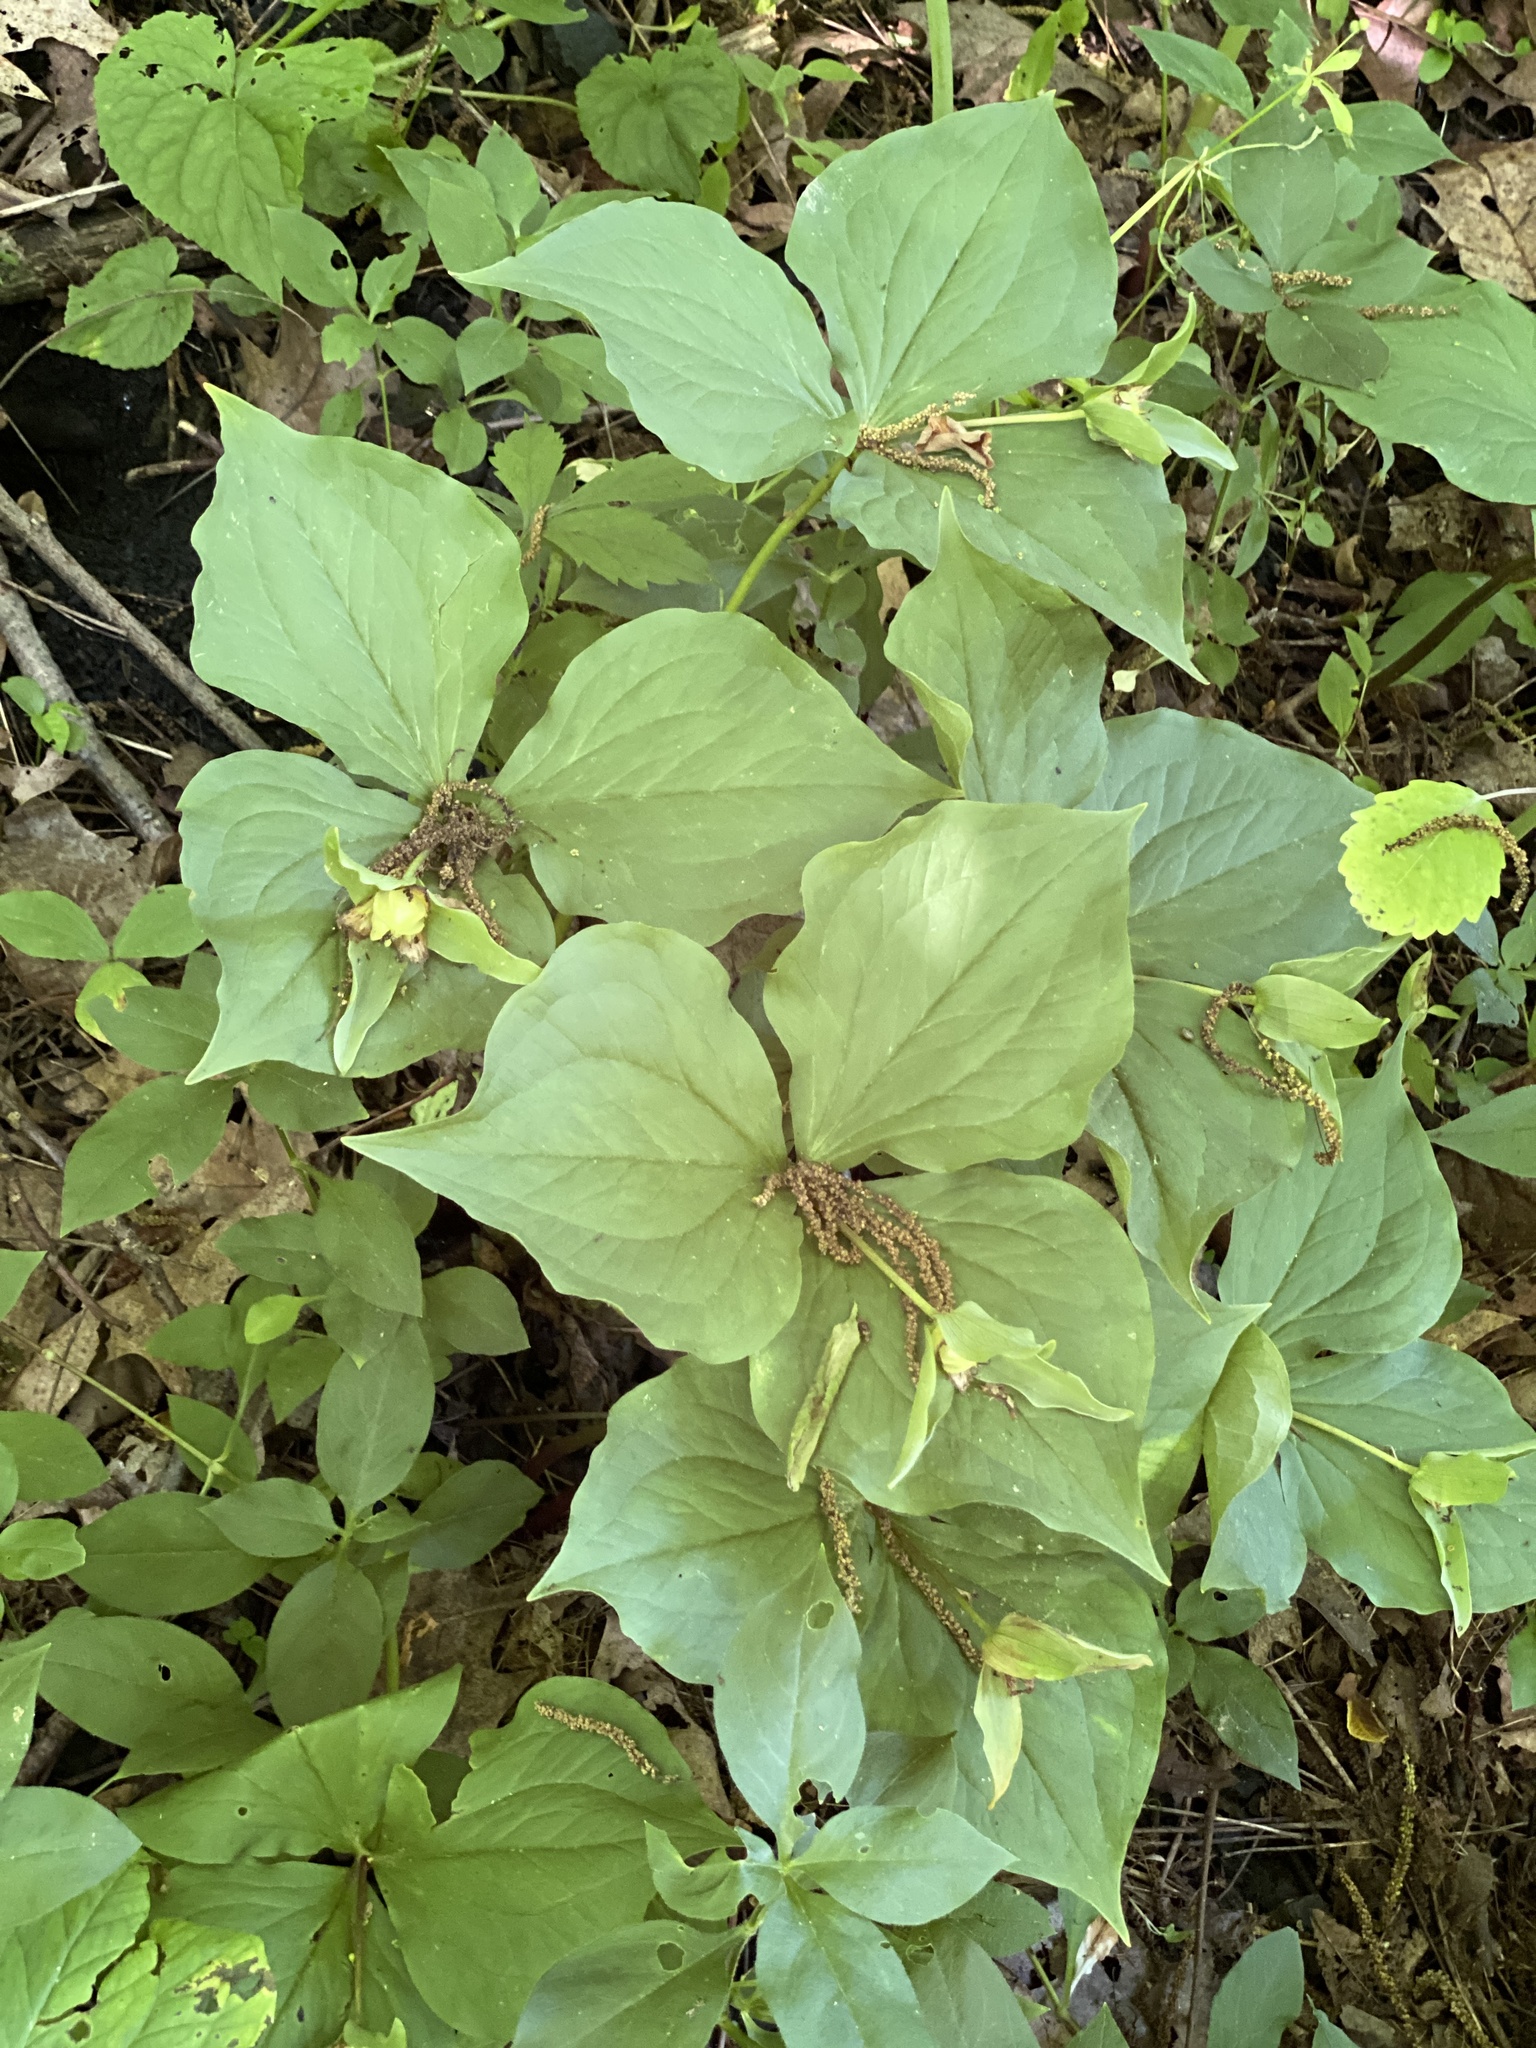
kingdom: Plantae
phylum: Tracheophyta
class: Liliopsida
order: Liliales
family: Melanthiaceae
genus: Trillium
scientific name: Trillium grandiflorum
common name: Great white trillium
